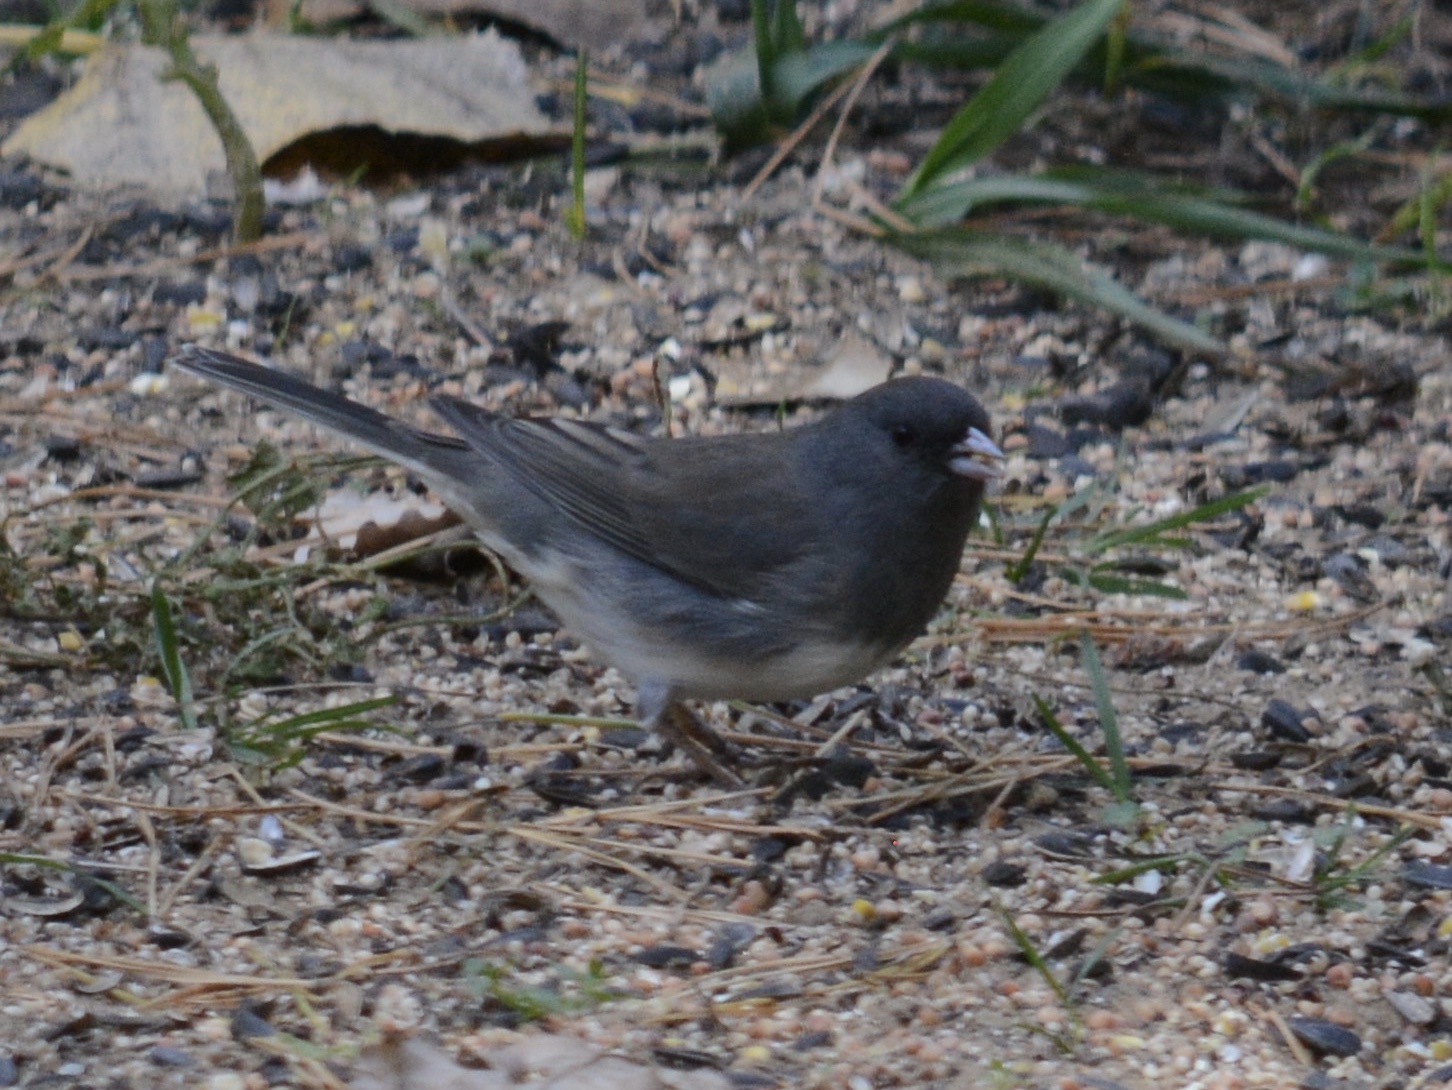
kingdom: Animalia
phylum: Chordata
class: Aves
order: Passeriformes
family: Passerellidae
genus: Junco
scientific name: Junco hyemalis
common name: Dark-eyed junco
